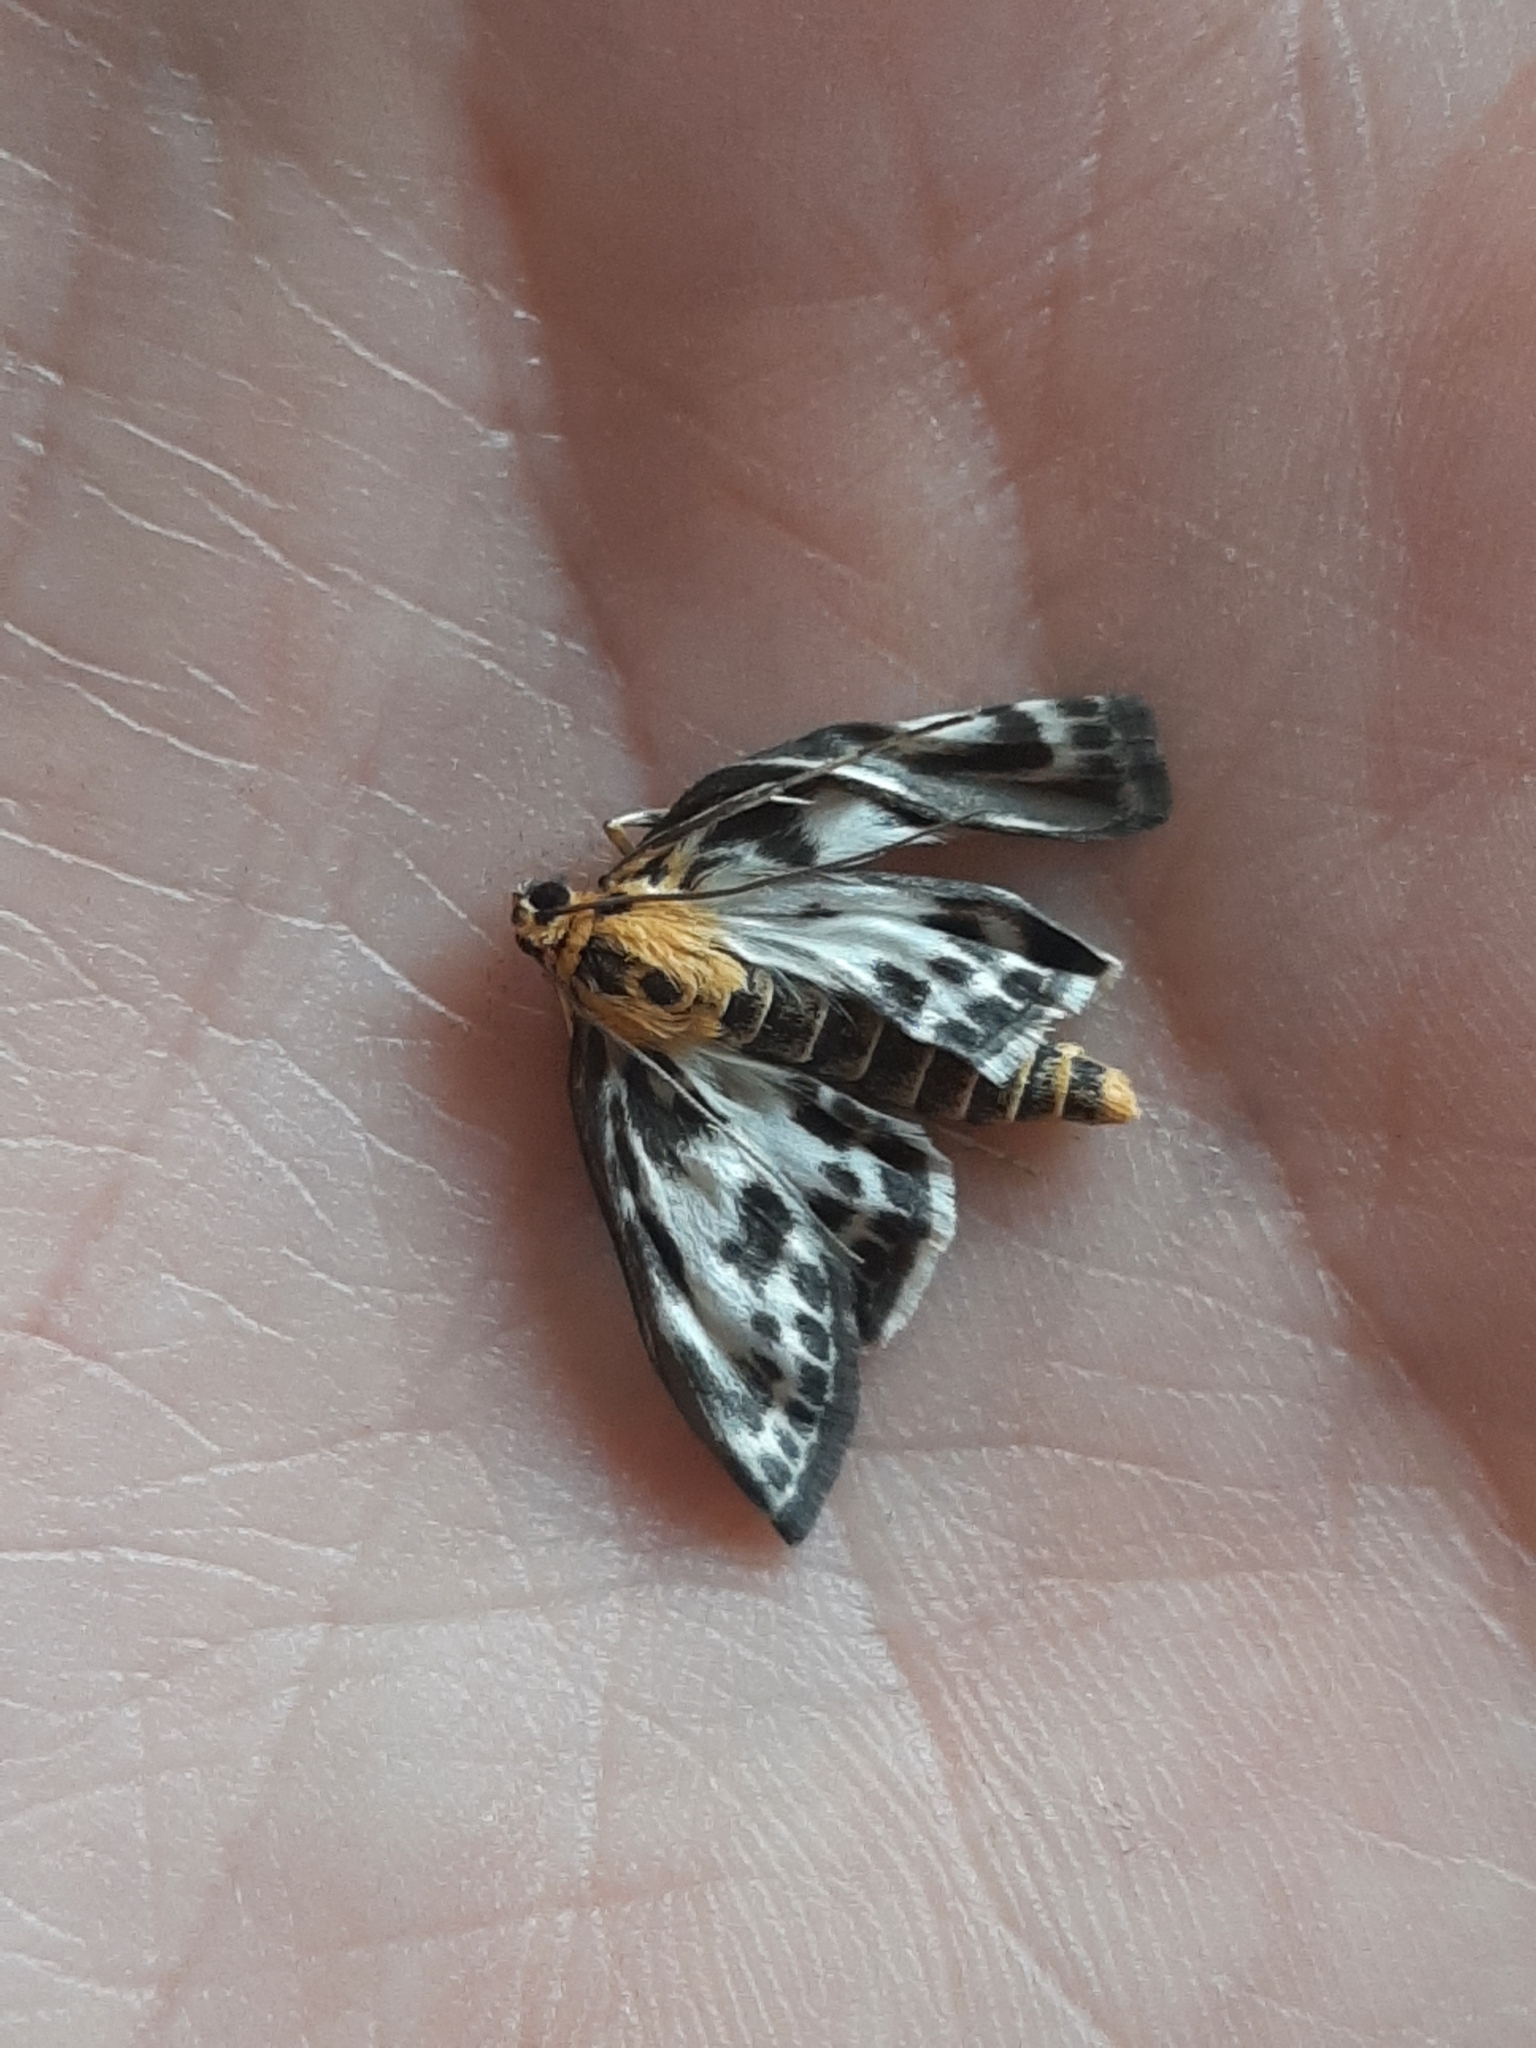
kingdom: Animalia
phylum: Arthropoda
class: Insecta
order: Lepidoptera
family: Crambidae
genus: Anania
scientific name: Anania hortulata
